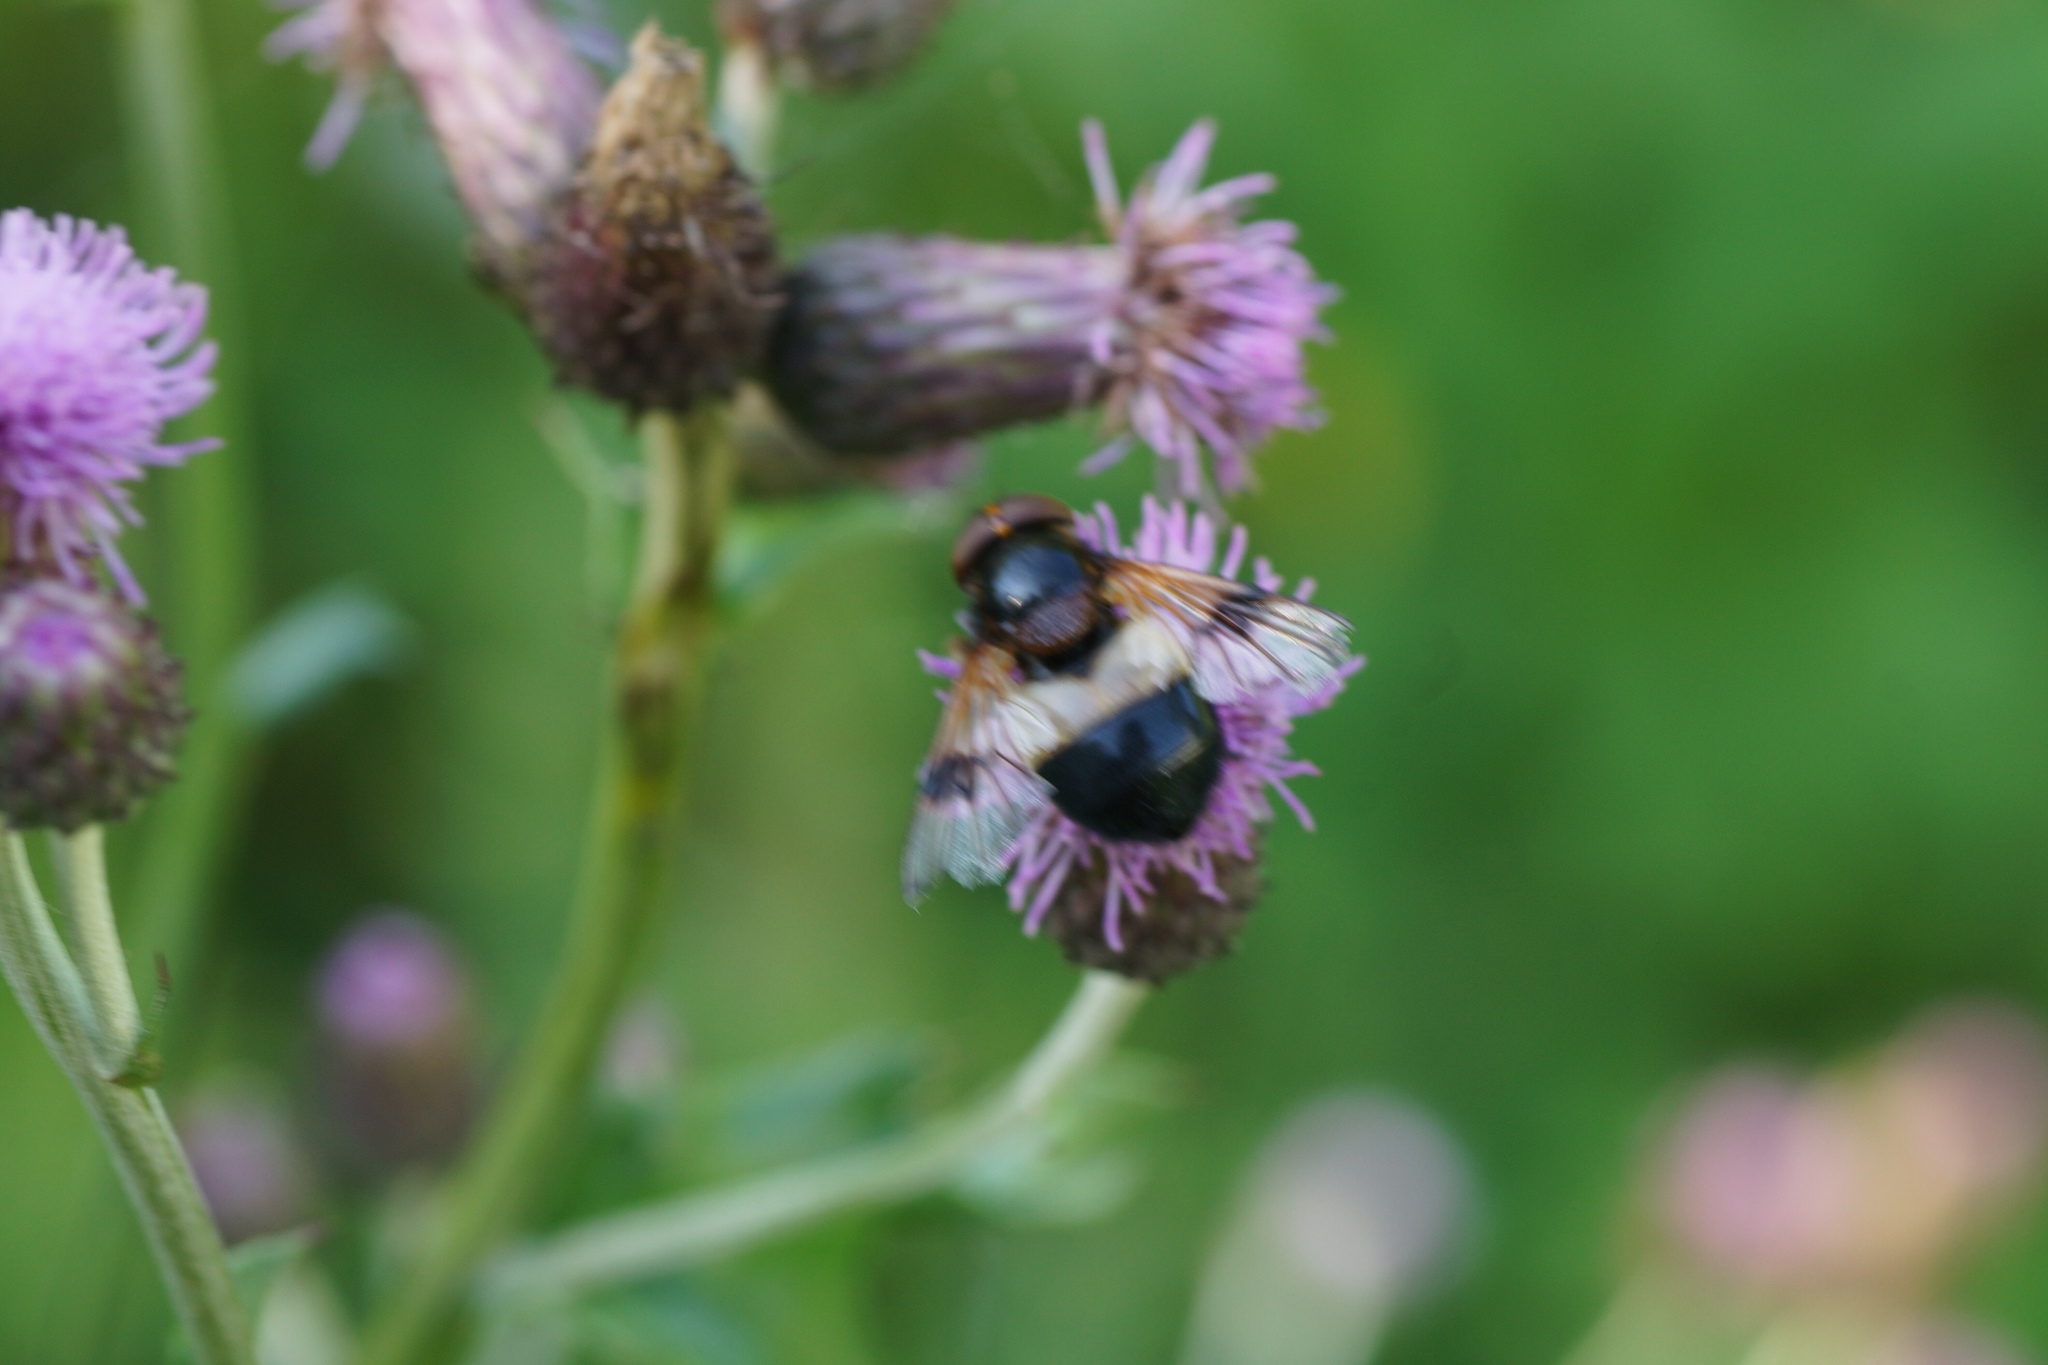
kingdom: Animalia
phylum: Arthropoda
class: Insecta
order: Diptera
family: Syrphidae
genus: Volucella
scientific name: Volucella pellucens
